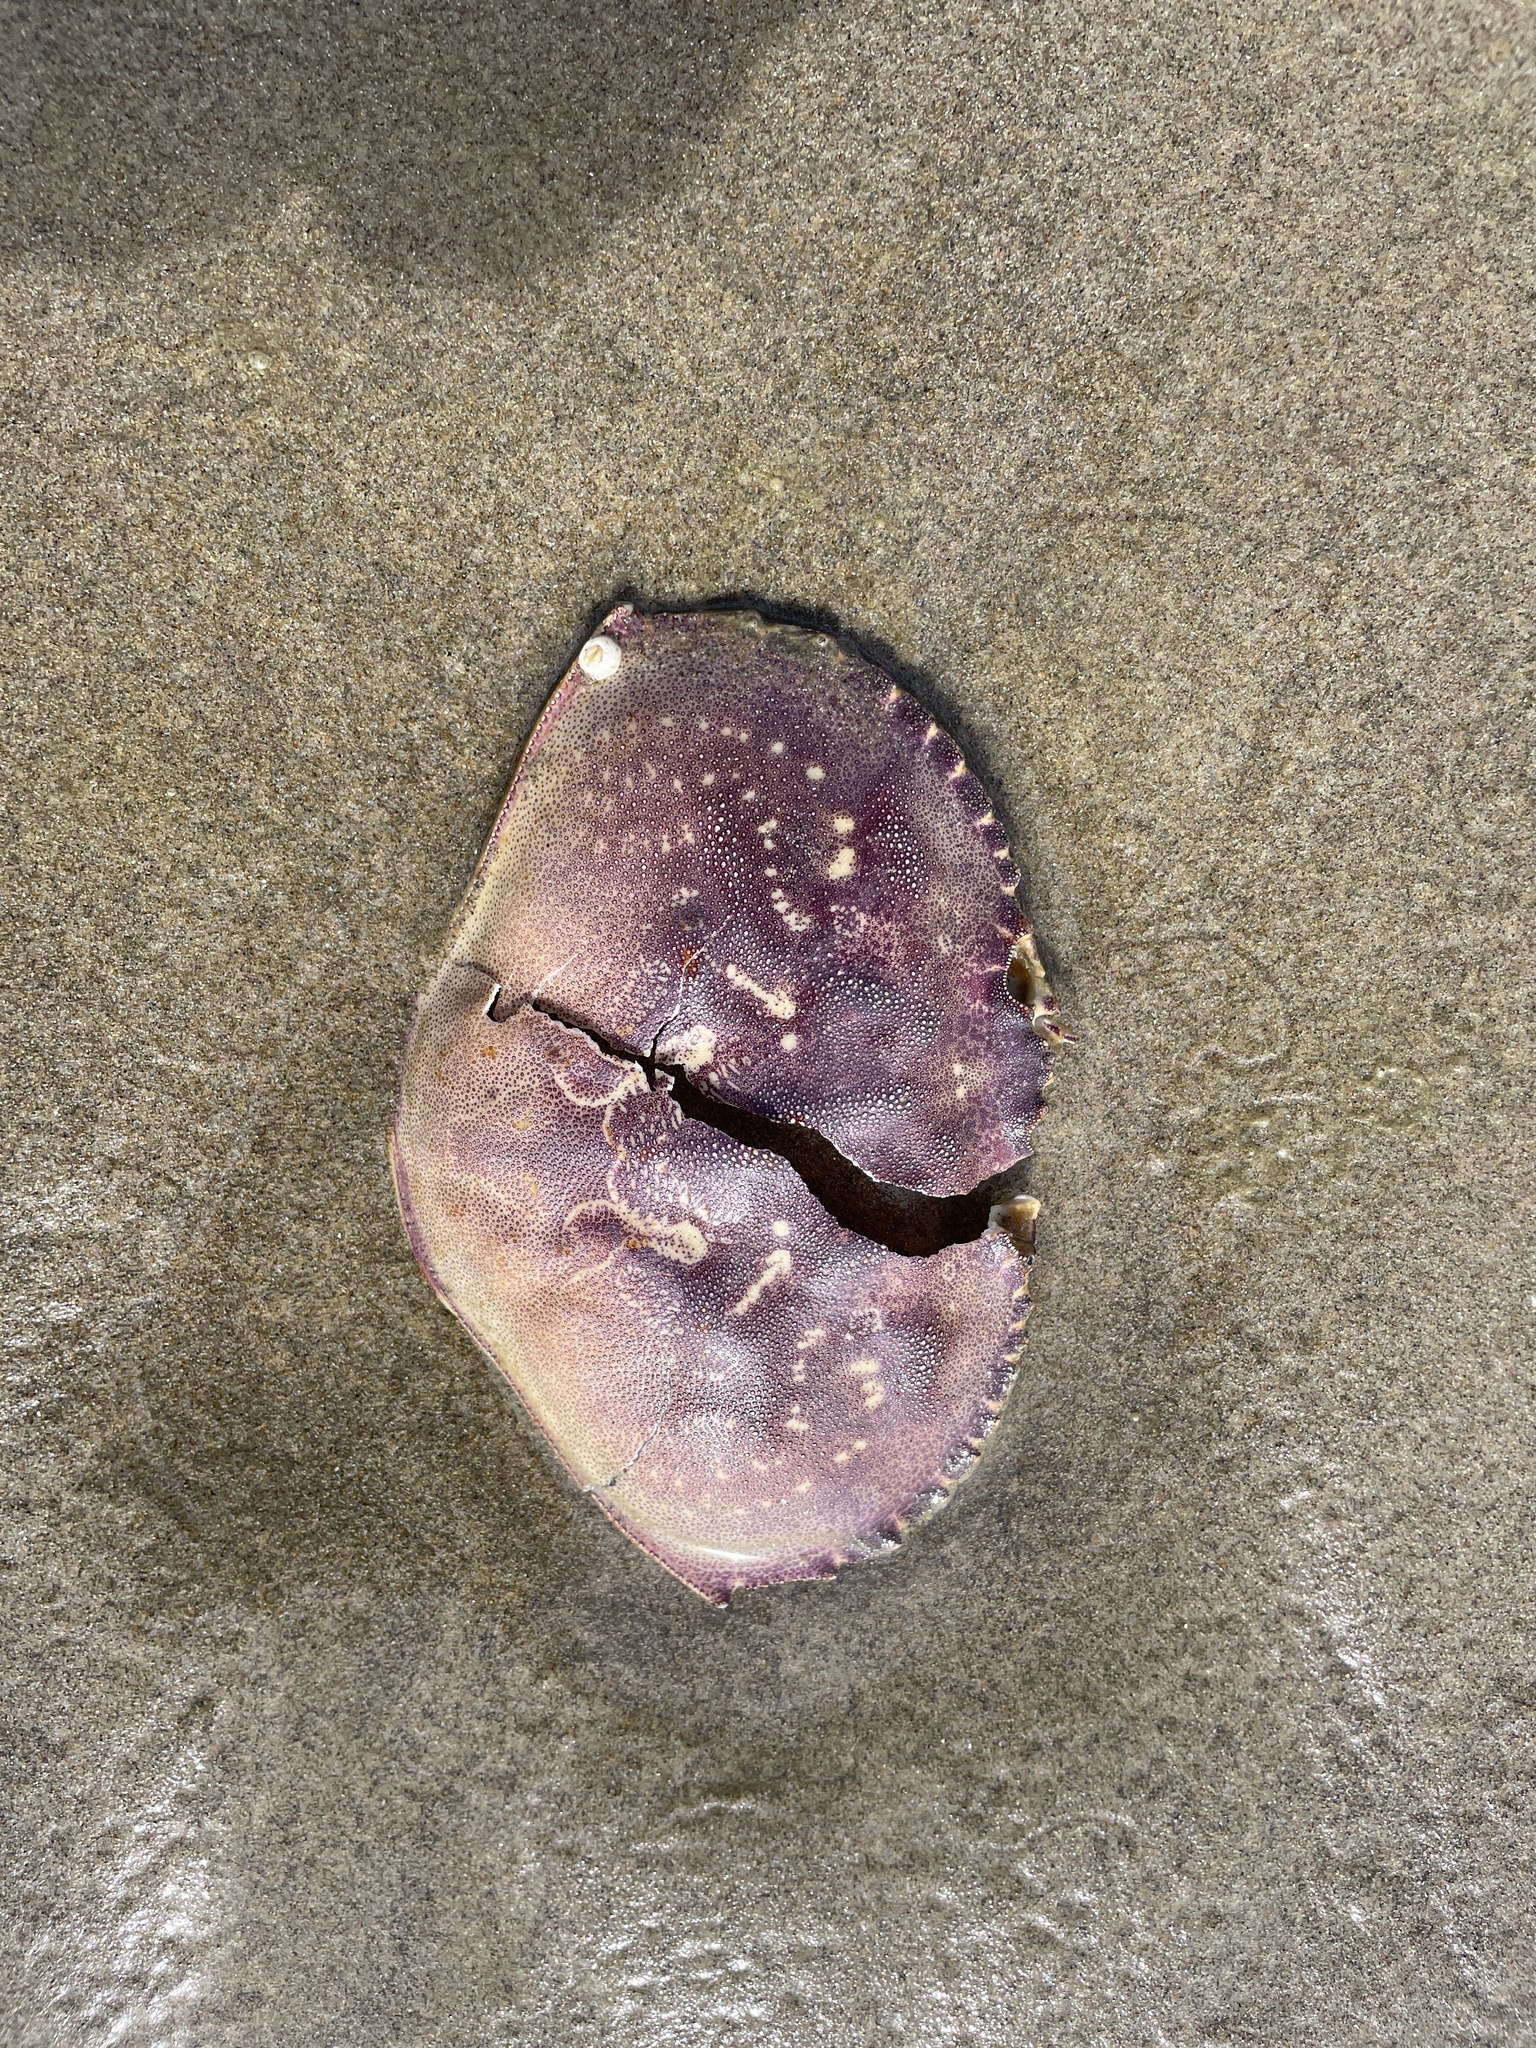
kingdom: Animalia
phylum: Arthropoda
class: Malacostraca
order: Decapoda
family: Cancridae
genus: Metacarcinus
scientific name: Metacarcinus magister
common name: Californian crab
